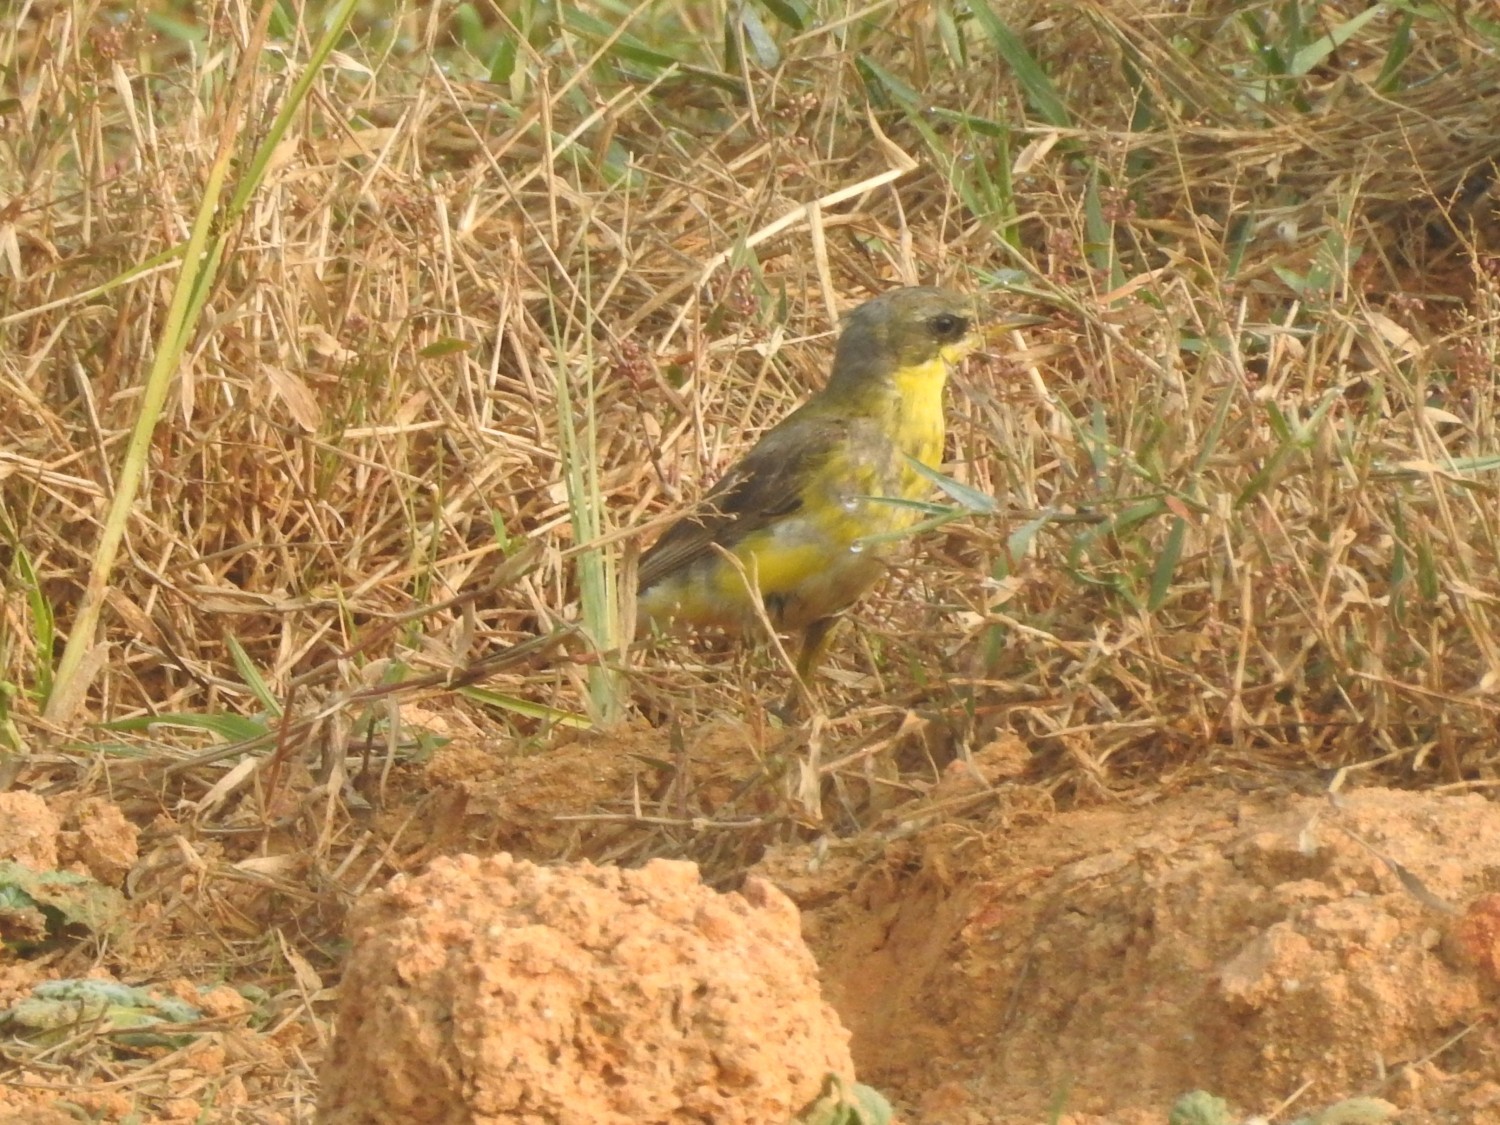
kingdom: Animalia
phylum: Chordata
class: Aves
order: Passeriformes
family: Motacillidae
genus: Motacilla
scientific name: Motacilla flava
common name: Western yellow wagtail
